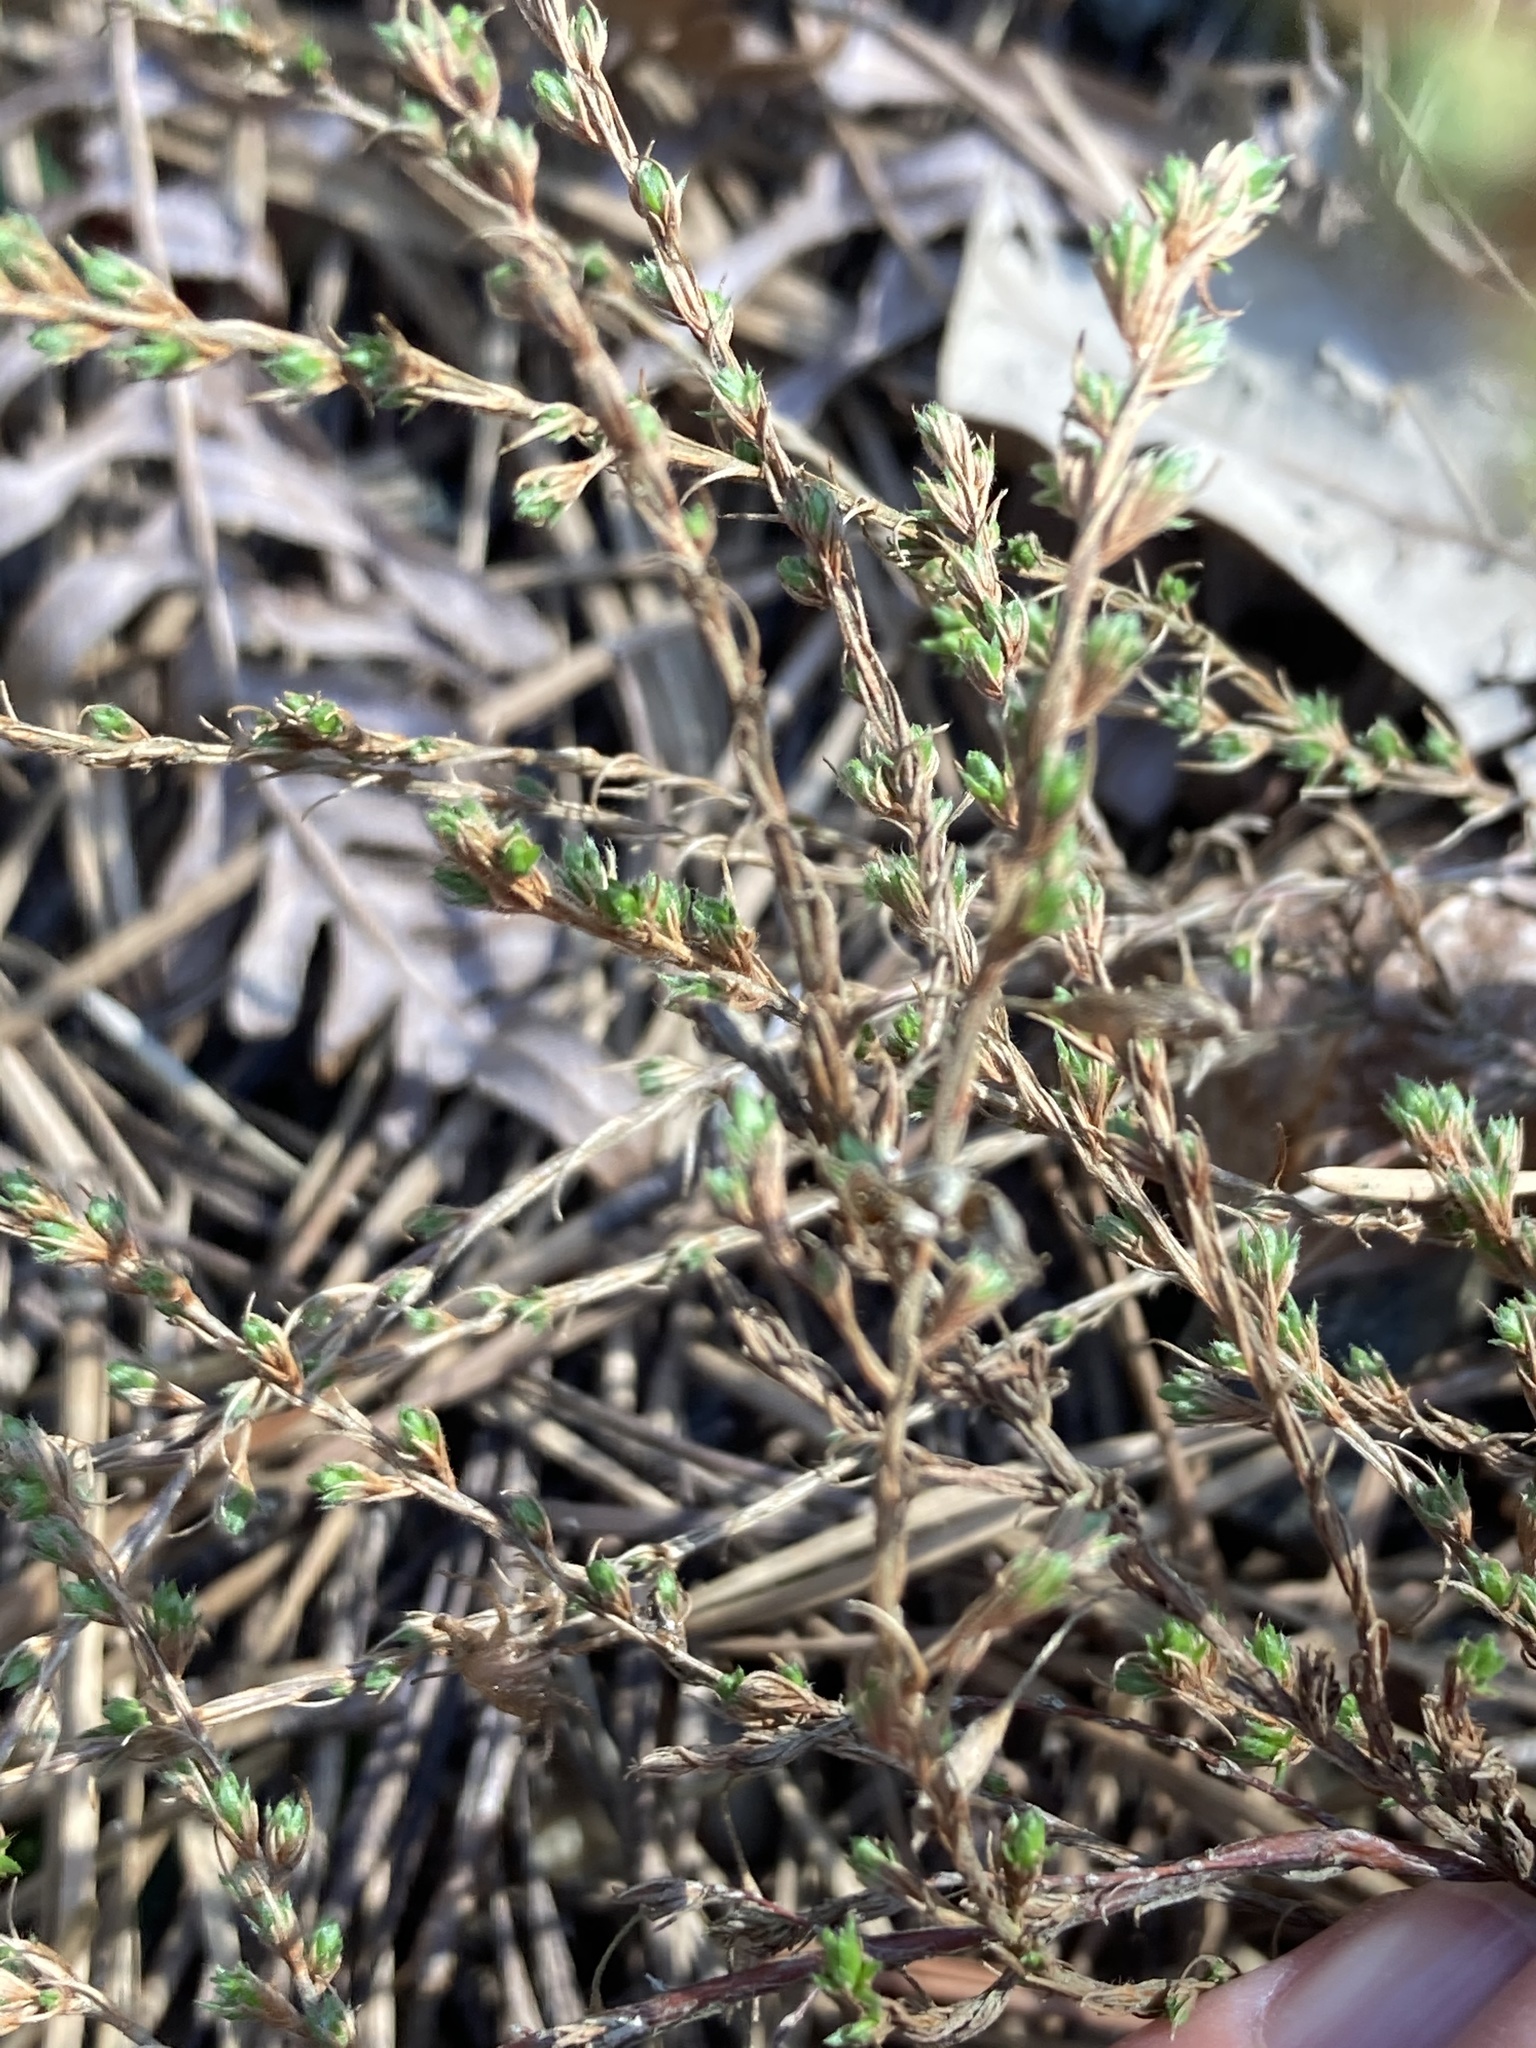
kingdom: Plantae
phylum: Tracheophyta
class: Magnoliopsida
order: Malvales
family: Cistaceae
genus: Hudsonia
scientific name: Hudsonia ericoides
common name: Golden-heather
